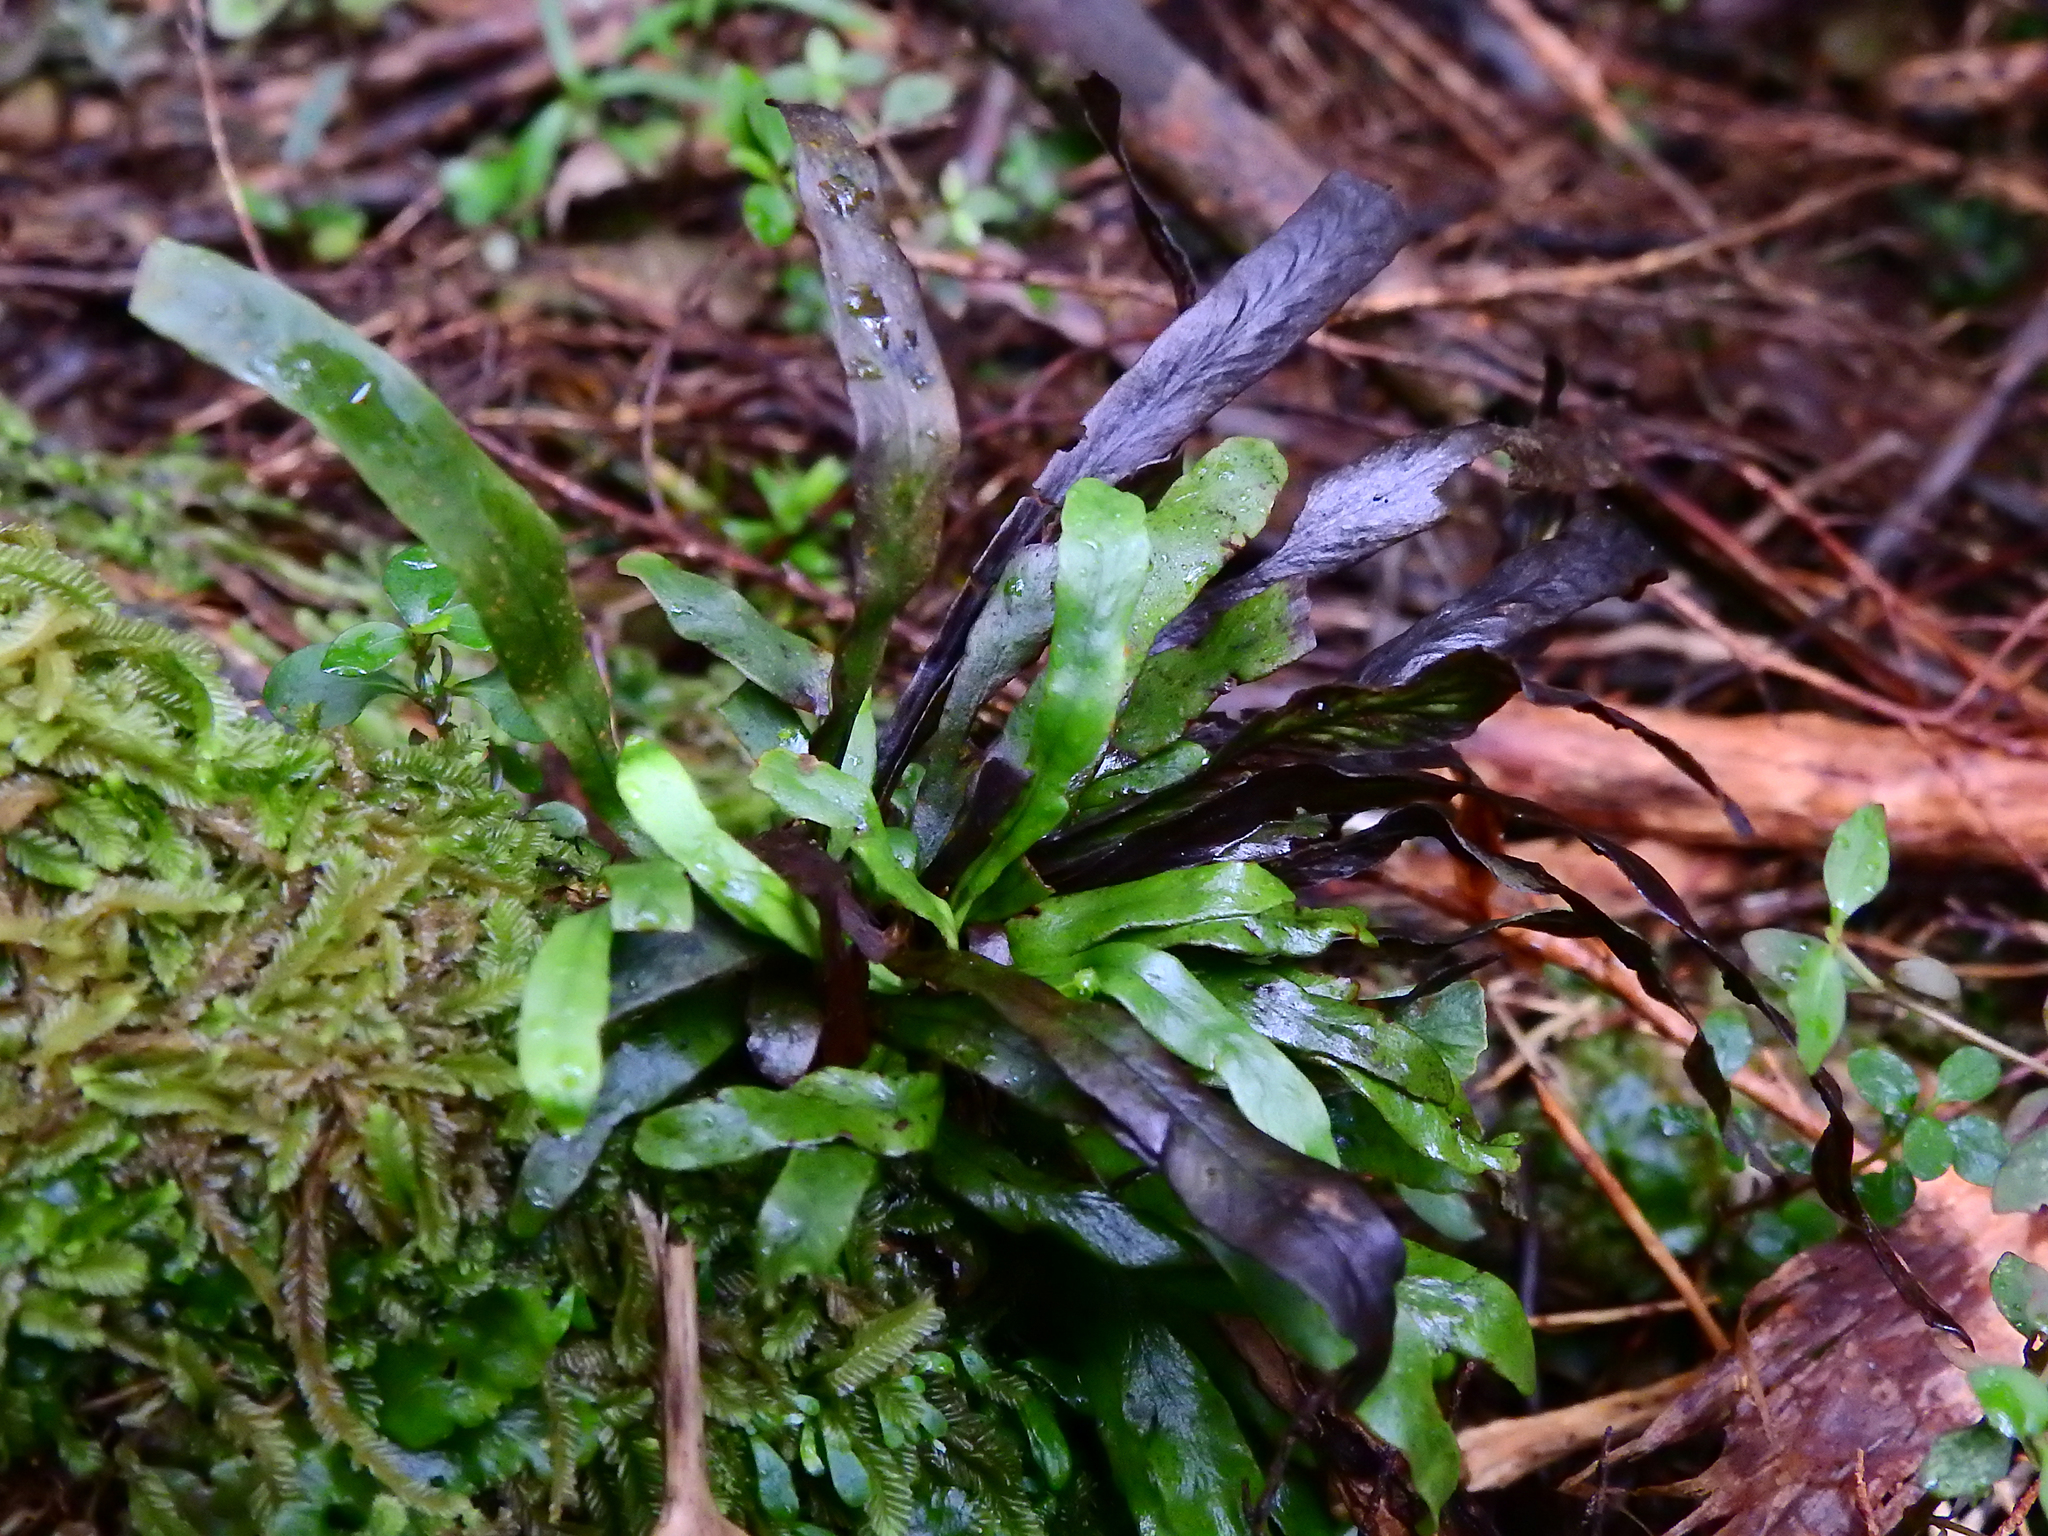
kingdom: Plantae
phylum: Tracheophyta
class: Polypodiopsida
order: Polypodiales
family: Polypodiaceae
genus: Notogrammitis
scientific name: Notogrammitis billardierei
